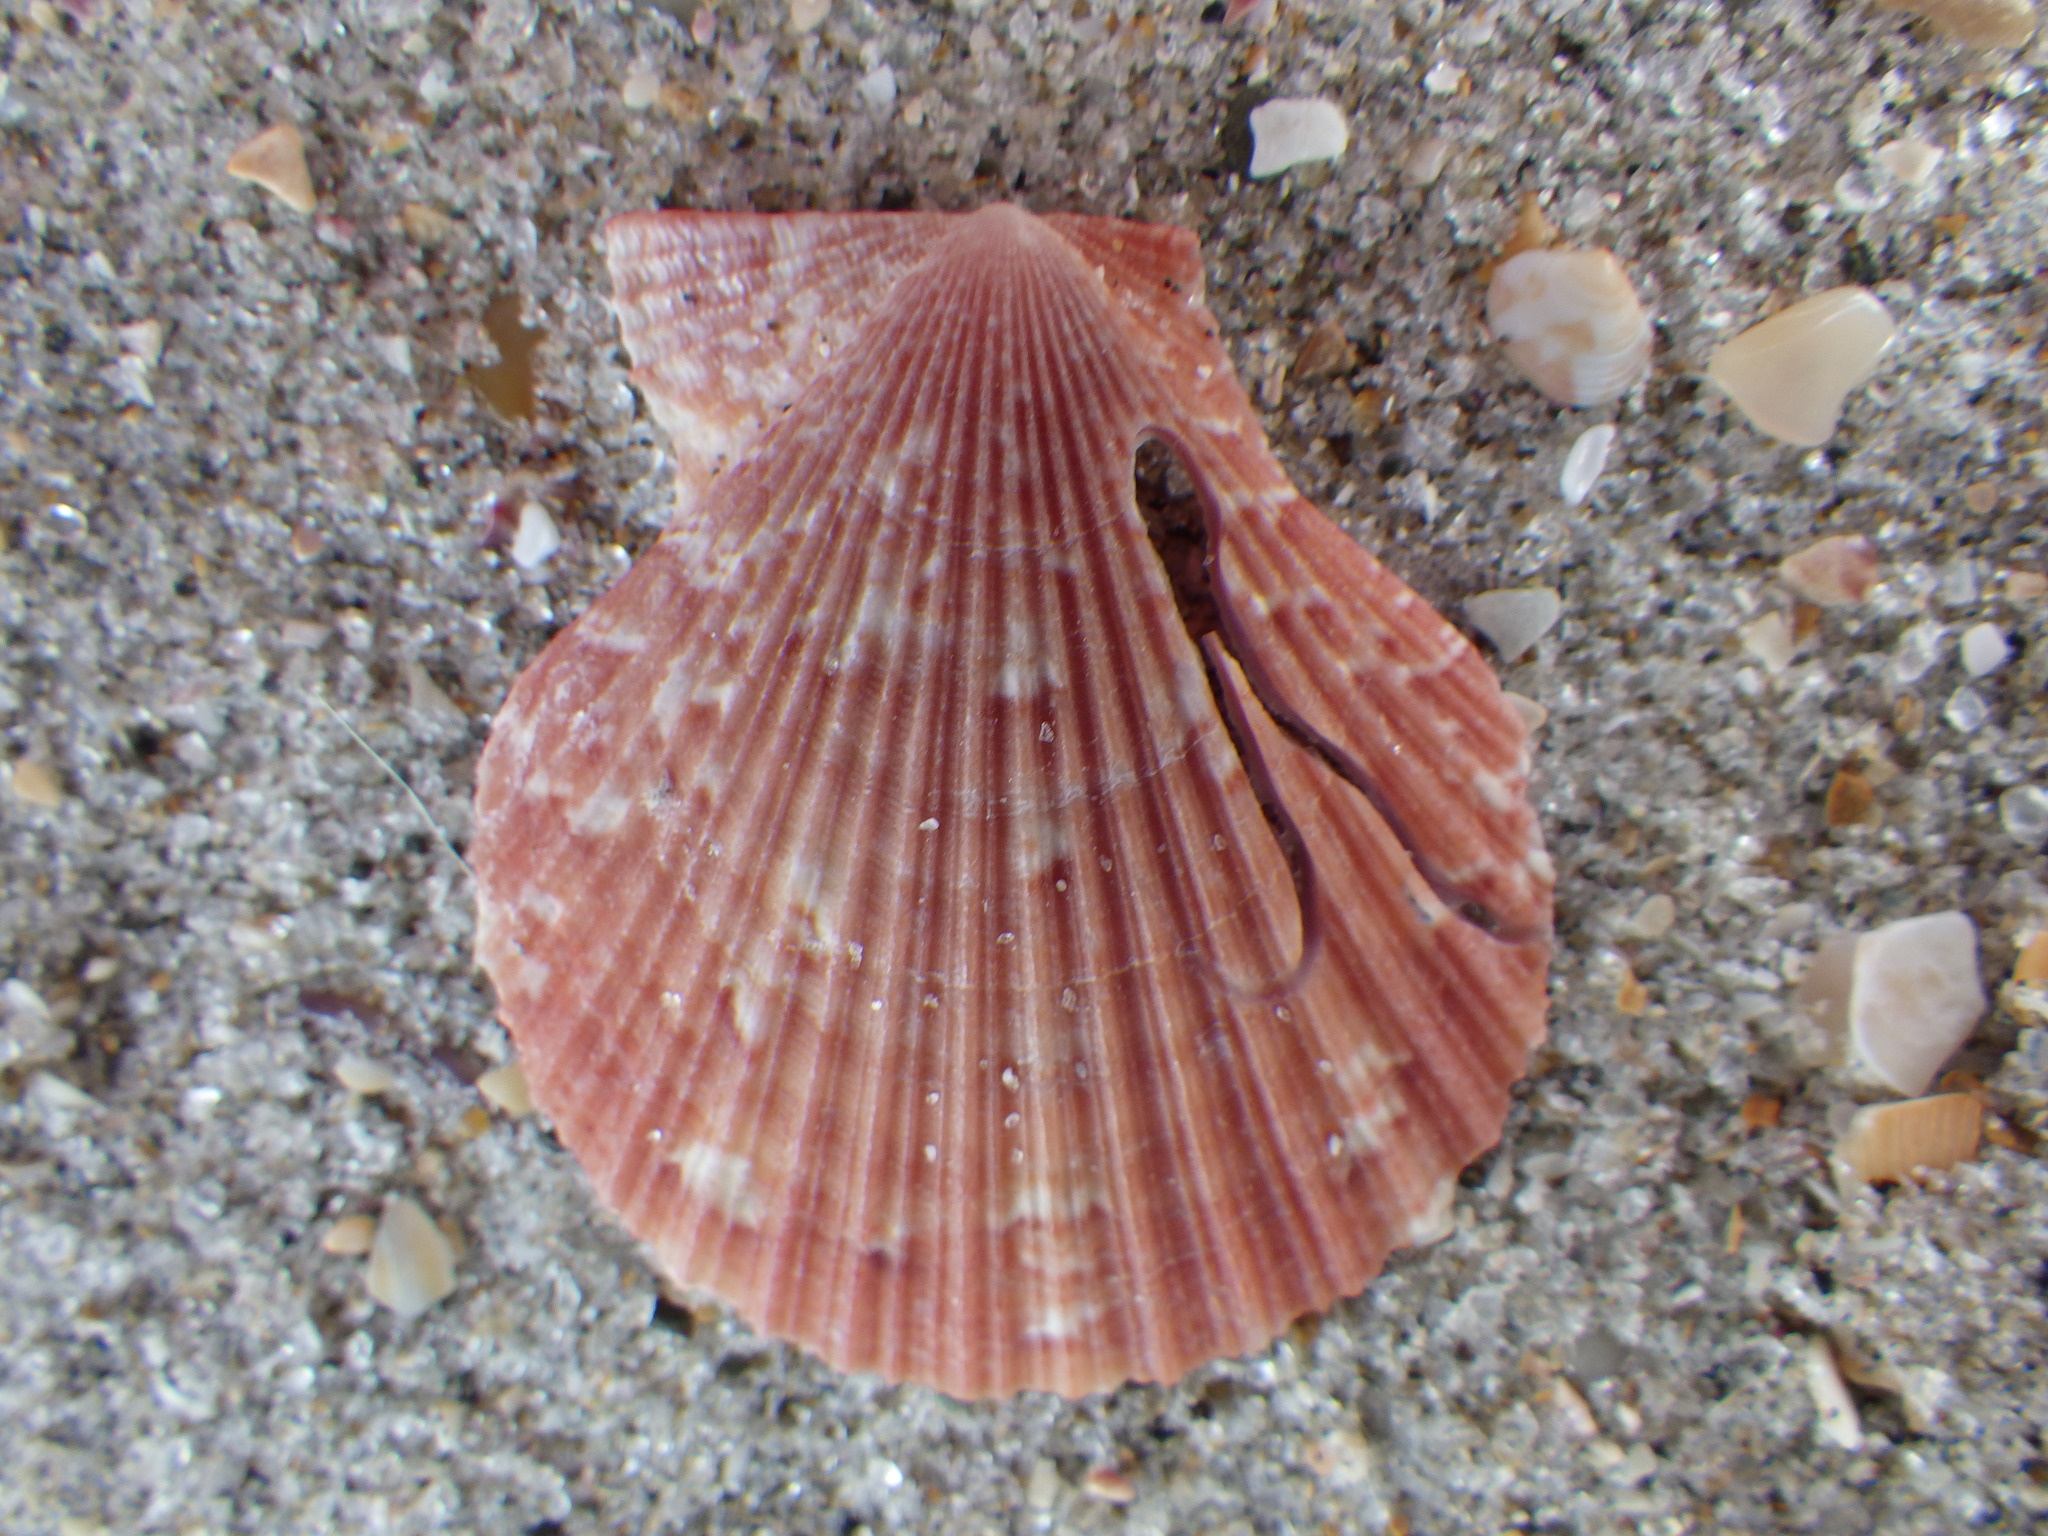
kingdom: Animalia
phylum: Mollusca
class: Bivalvia
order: Pectinida
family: Pectinidae
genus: Talochlamys
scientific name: Talochlamys gemmulata
